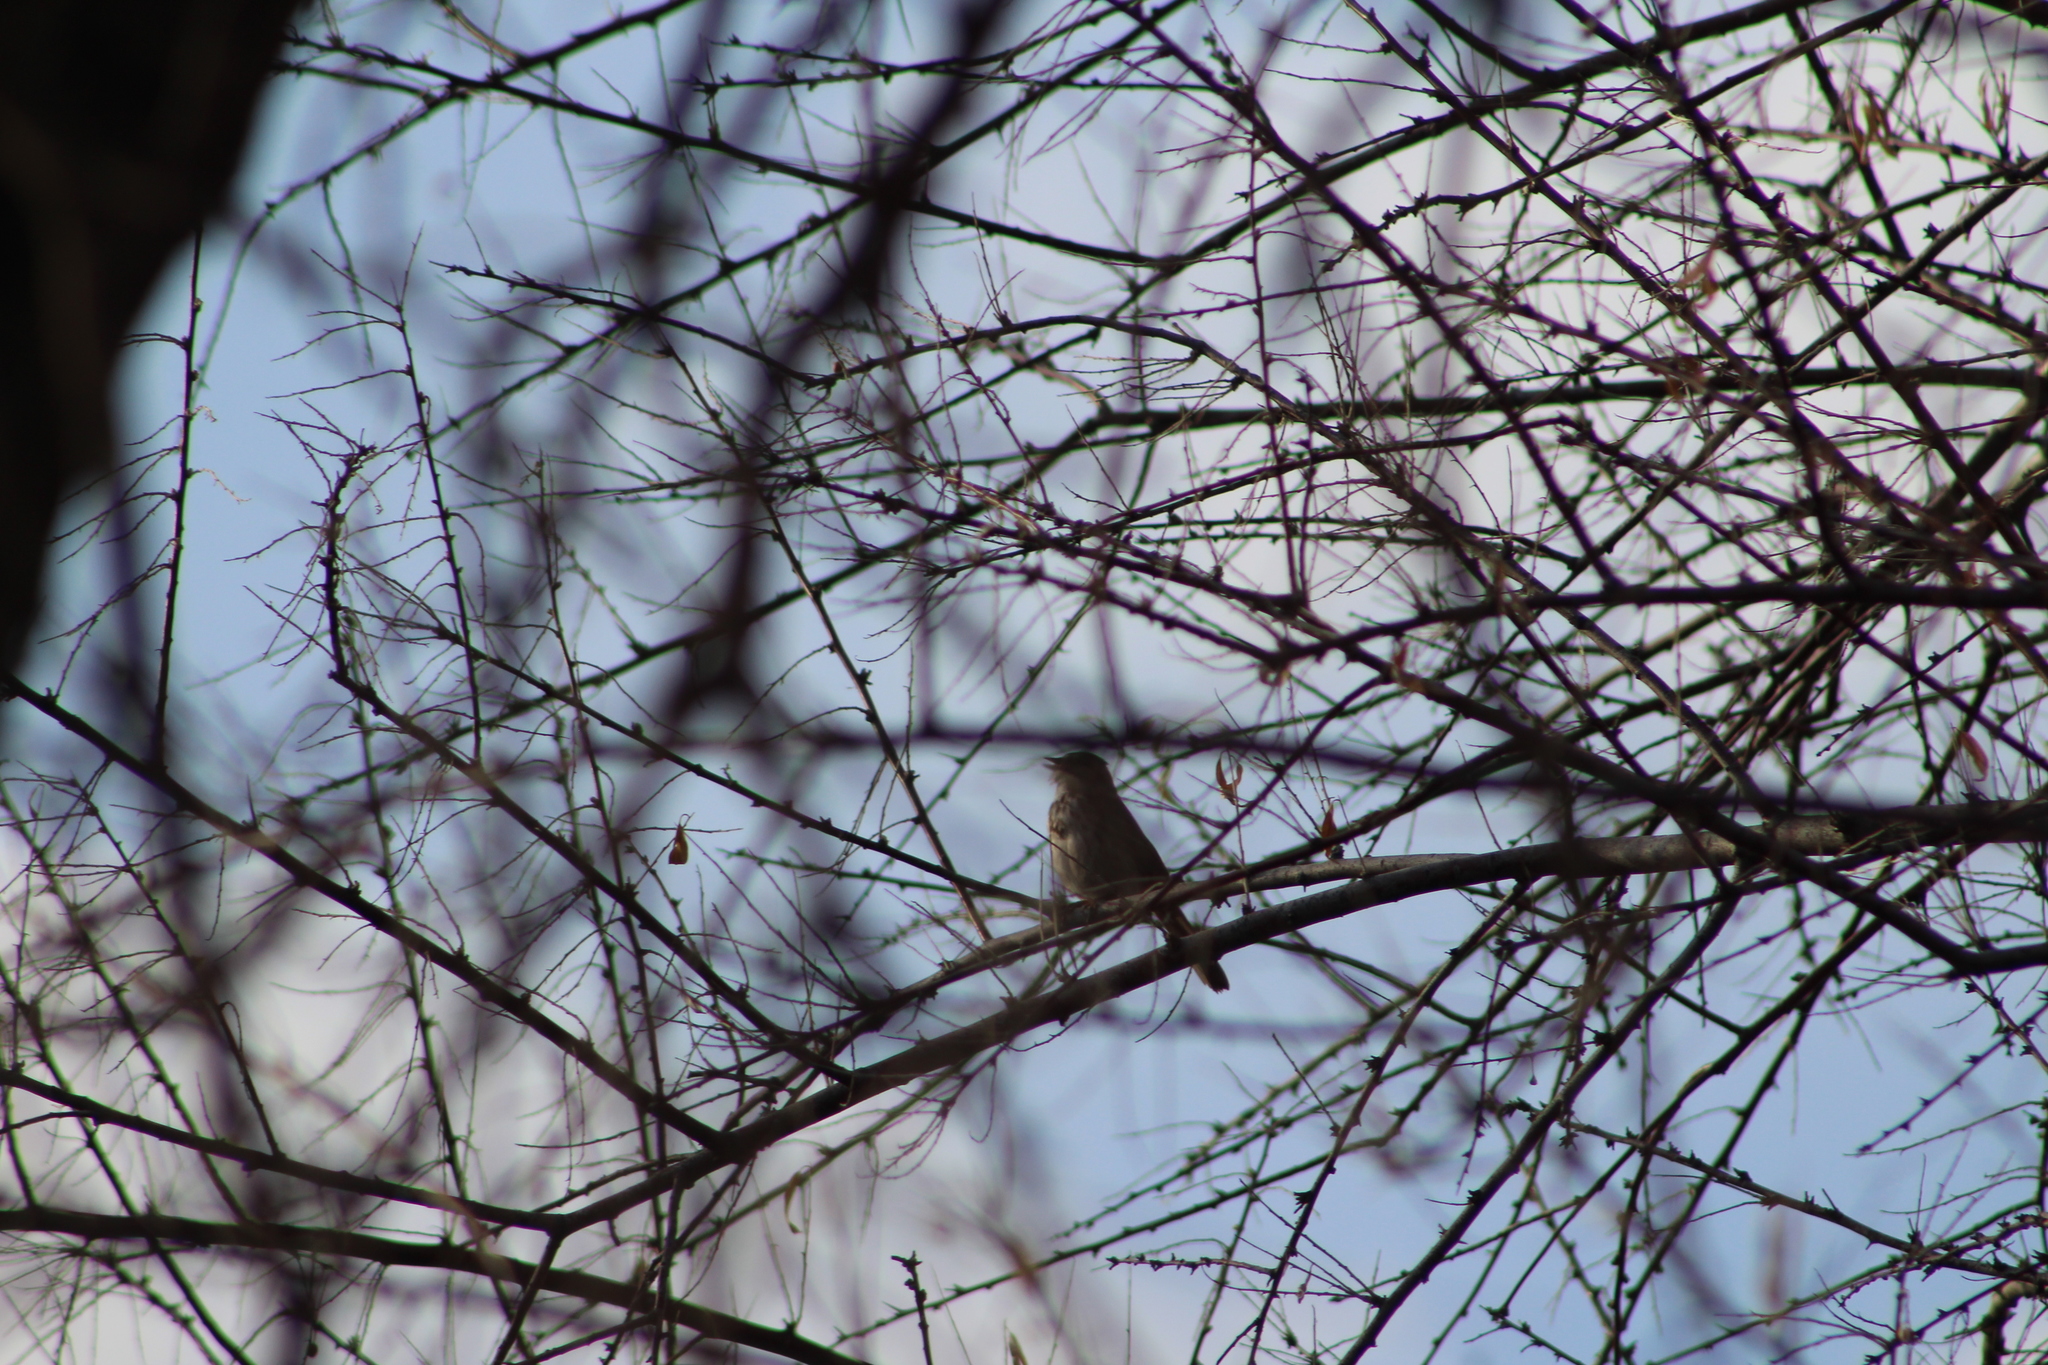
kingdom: Animalia
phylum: Chordata
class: Aves
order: Passeriformes
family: Passerellidae
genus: Melospiza
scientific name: Melospiza melodia
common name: Song sparrow
